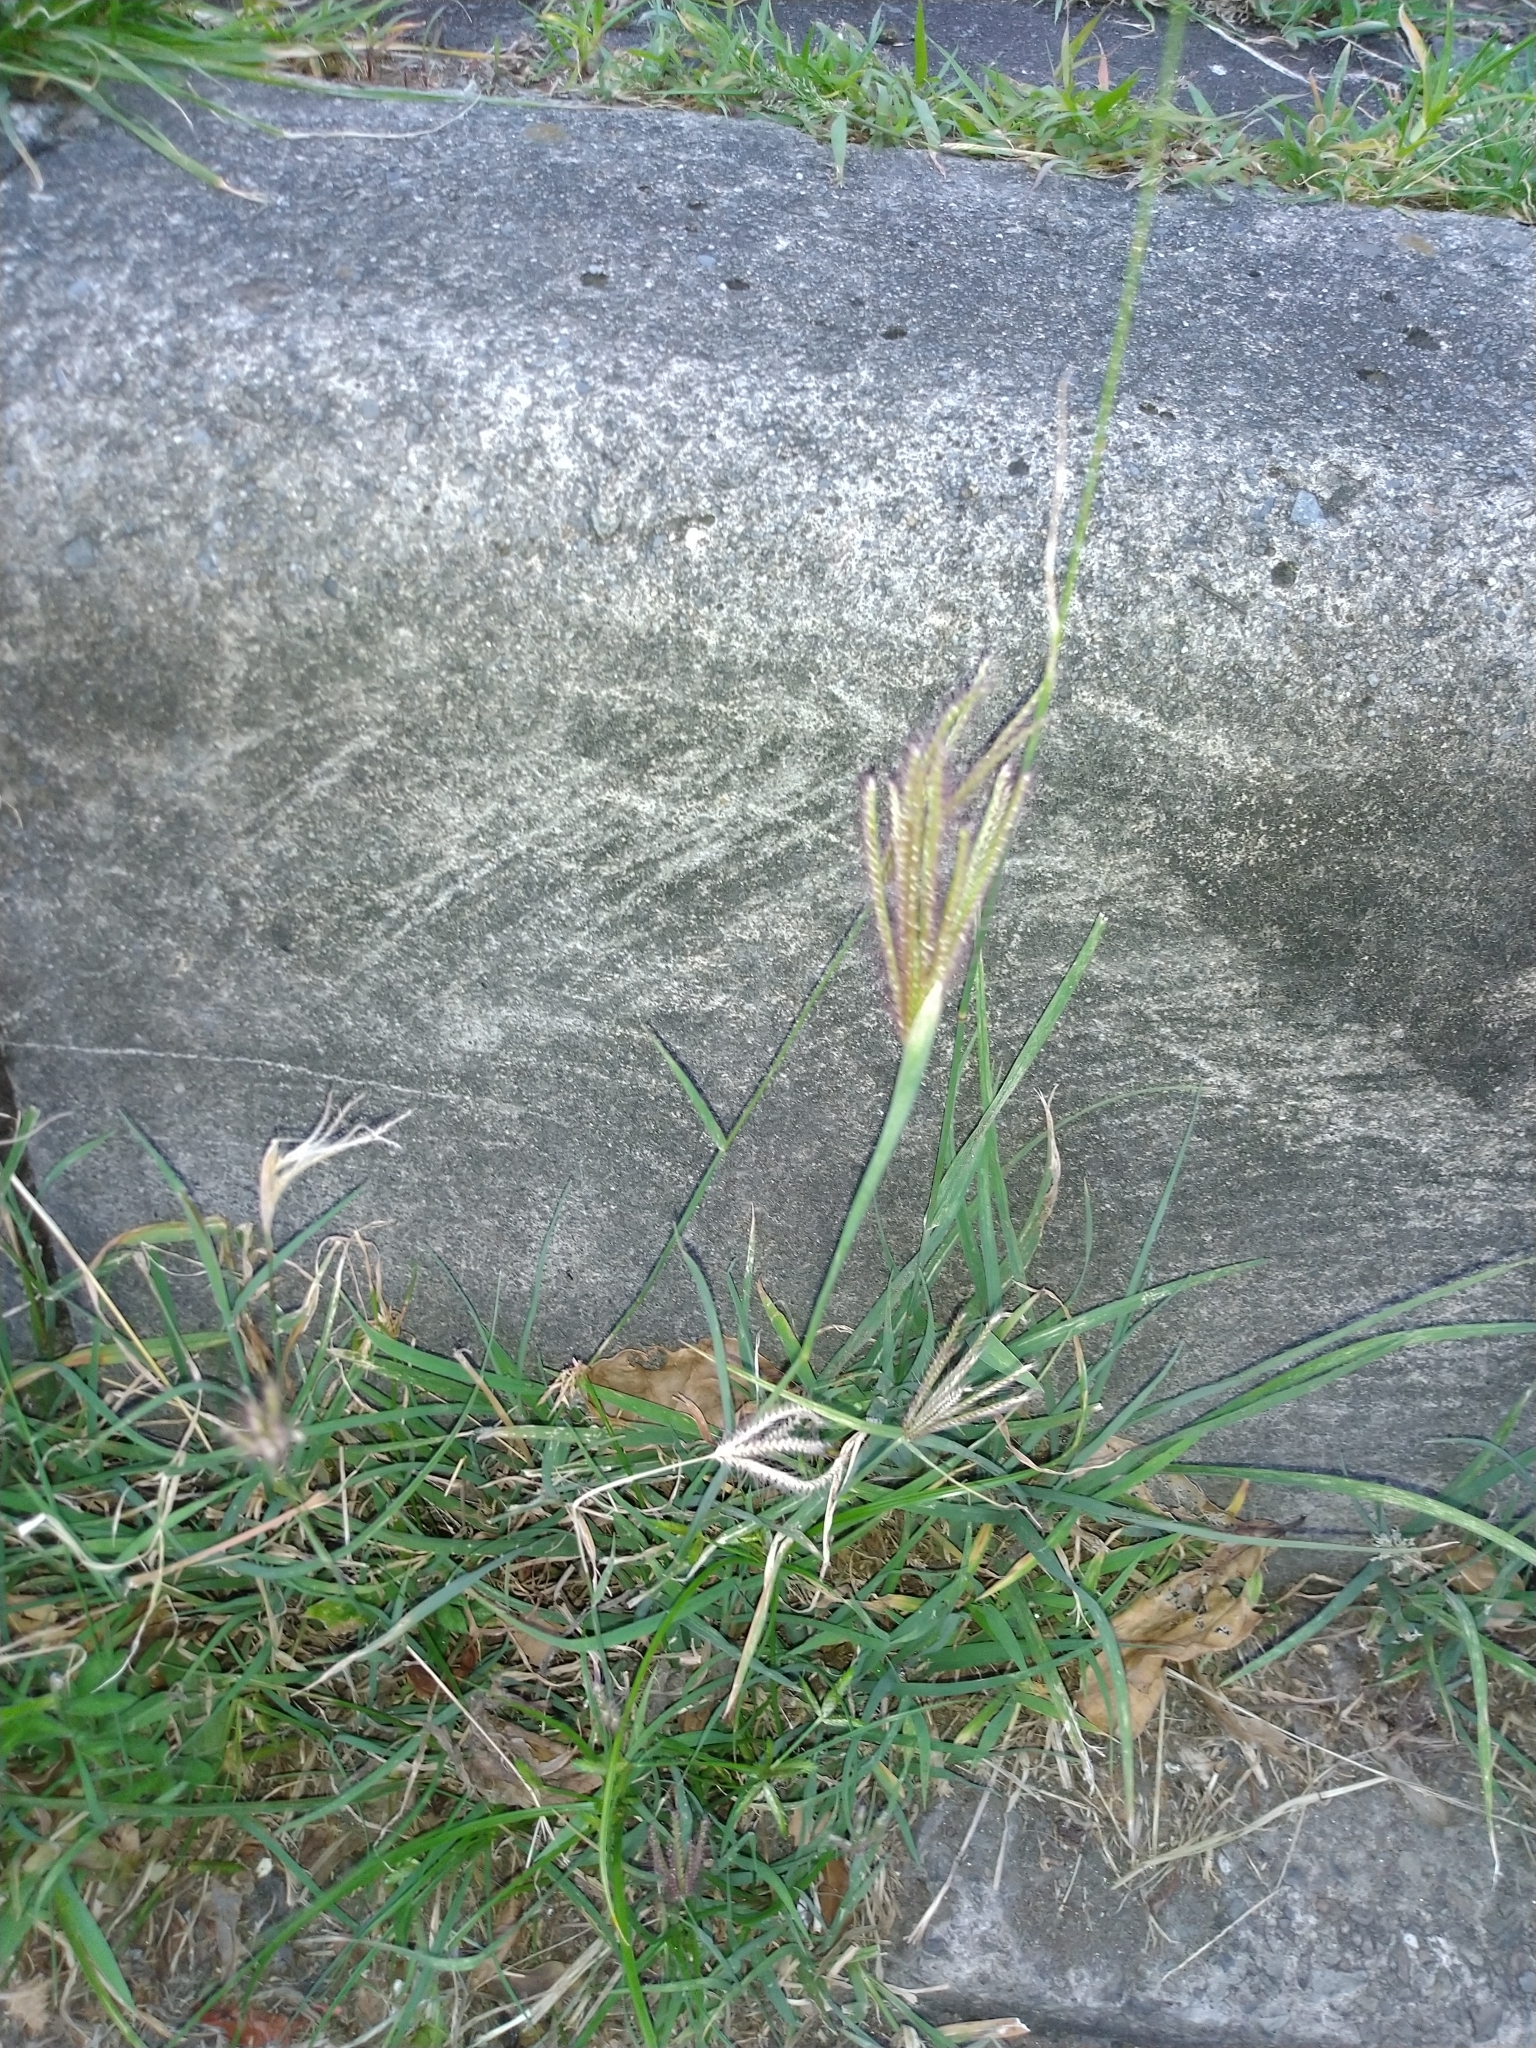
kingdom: Plantae
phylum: Tracheophyta
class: Liliopsida
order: Poales
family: Poaceae
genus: Chloris
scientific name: Chloris barbata
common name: Swollen fingergrass
